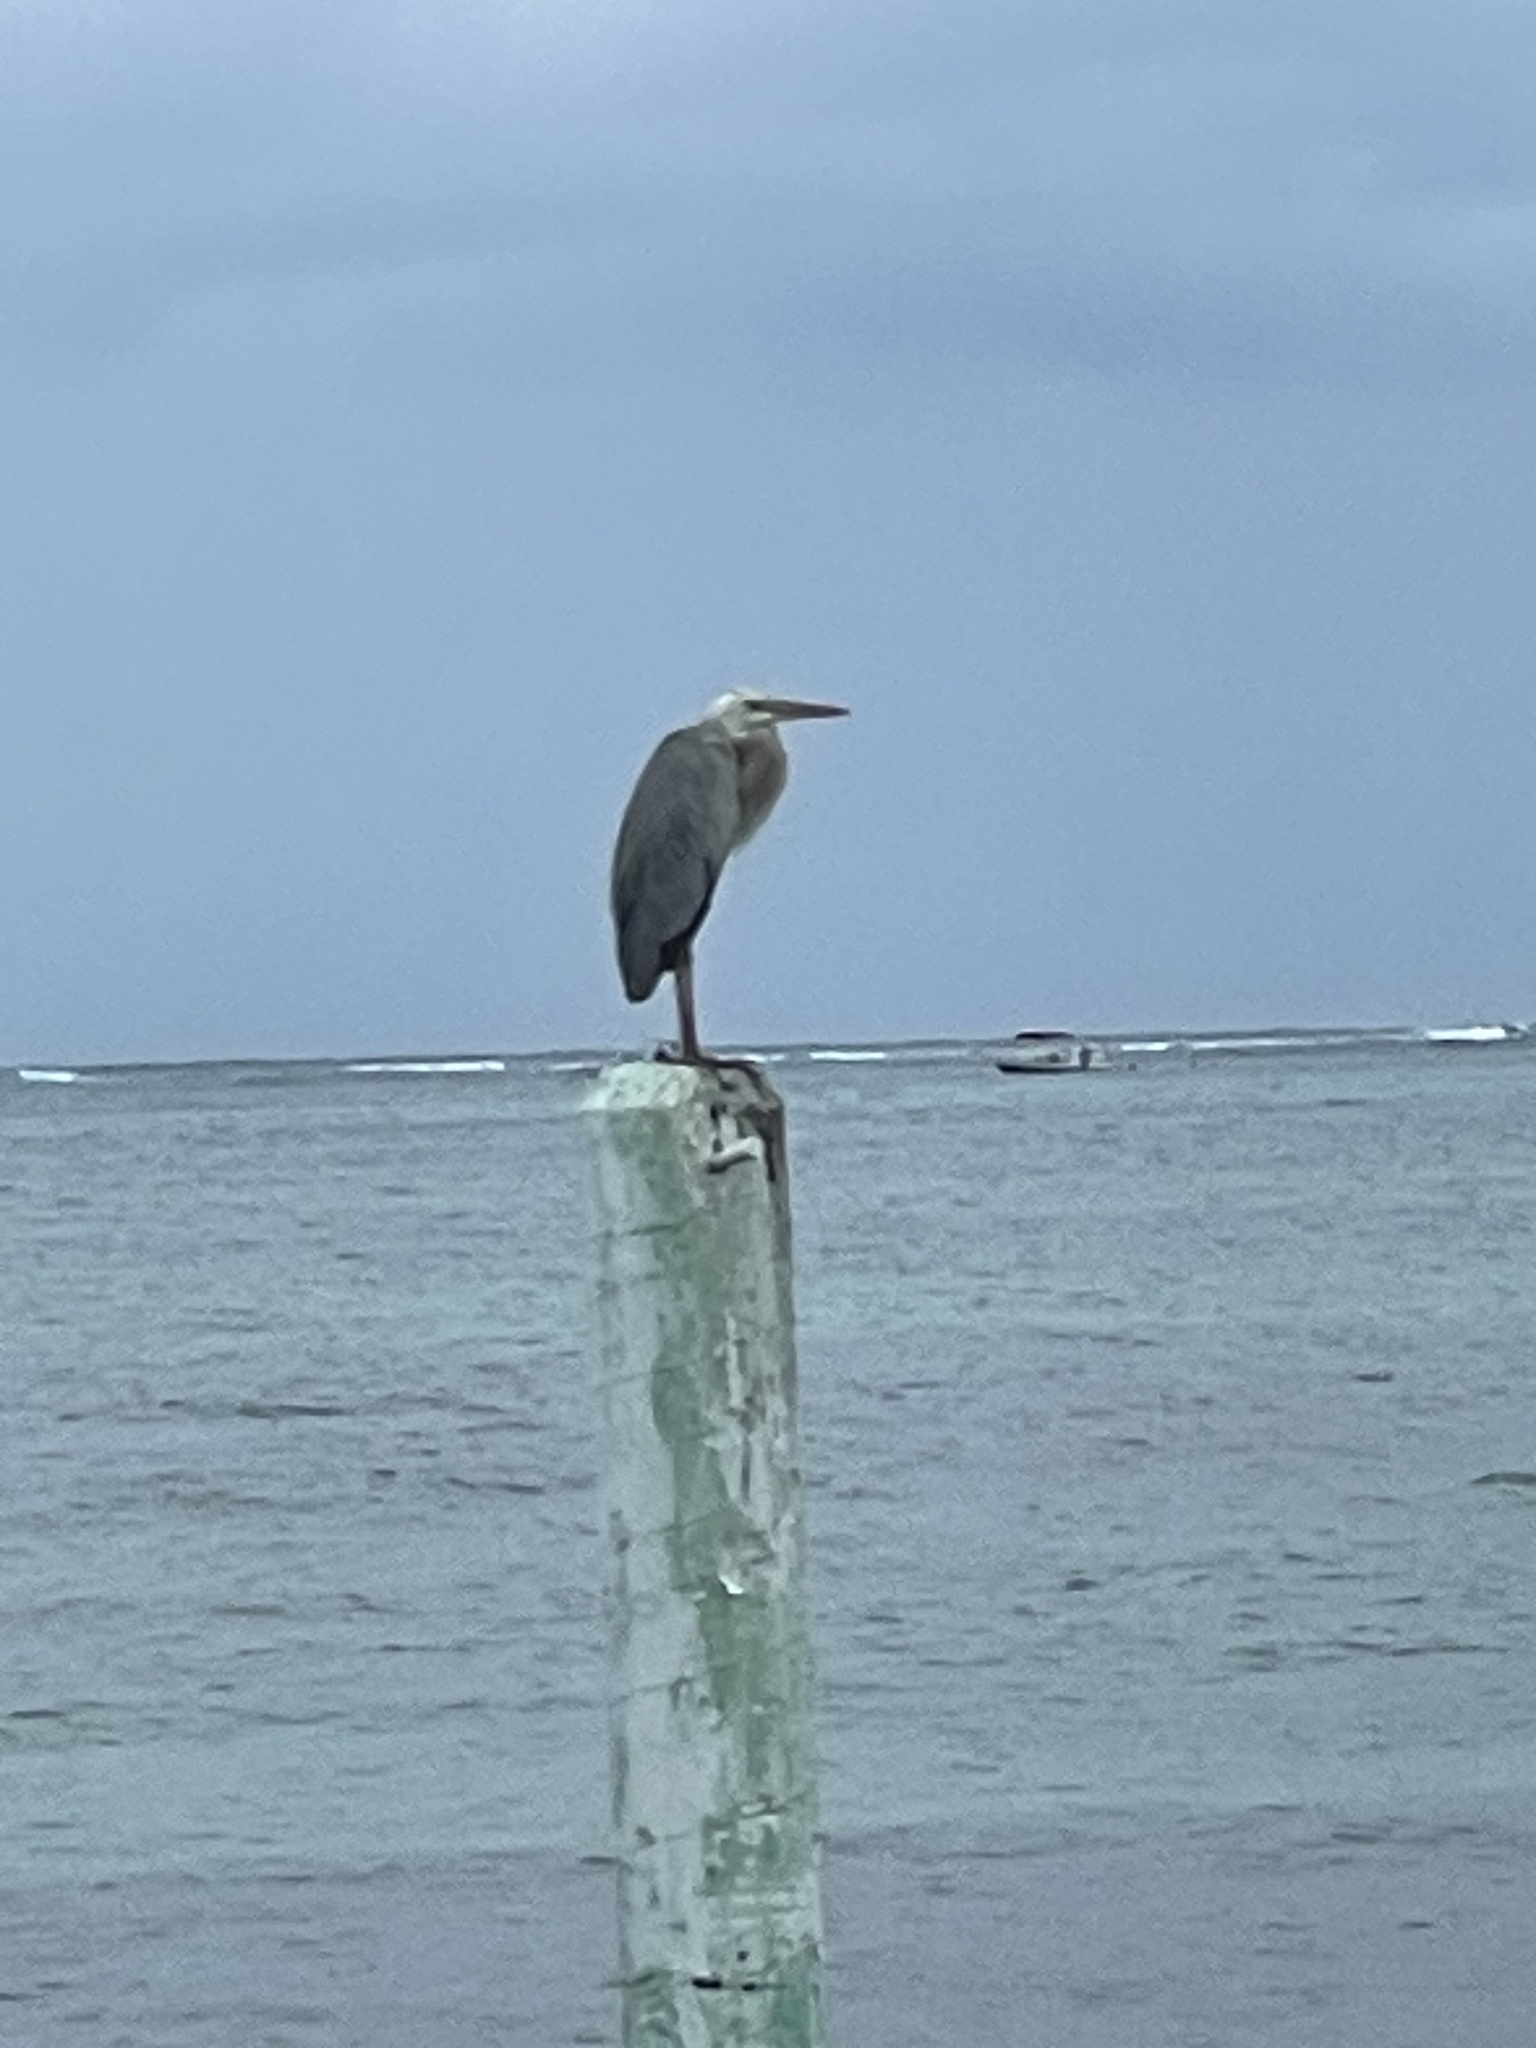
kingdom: Animalia
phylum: Chordata
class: Aves
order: Pelecaniformes
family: Ardeidae
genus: Ardea
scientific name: Ardea herodias
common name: Great blue heron
